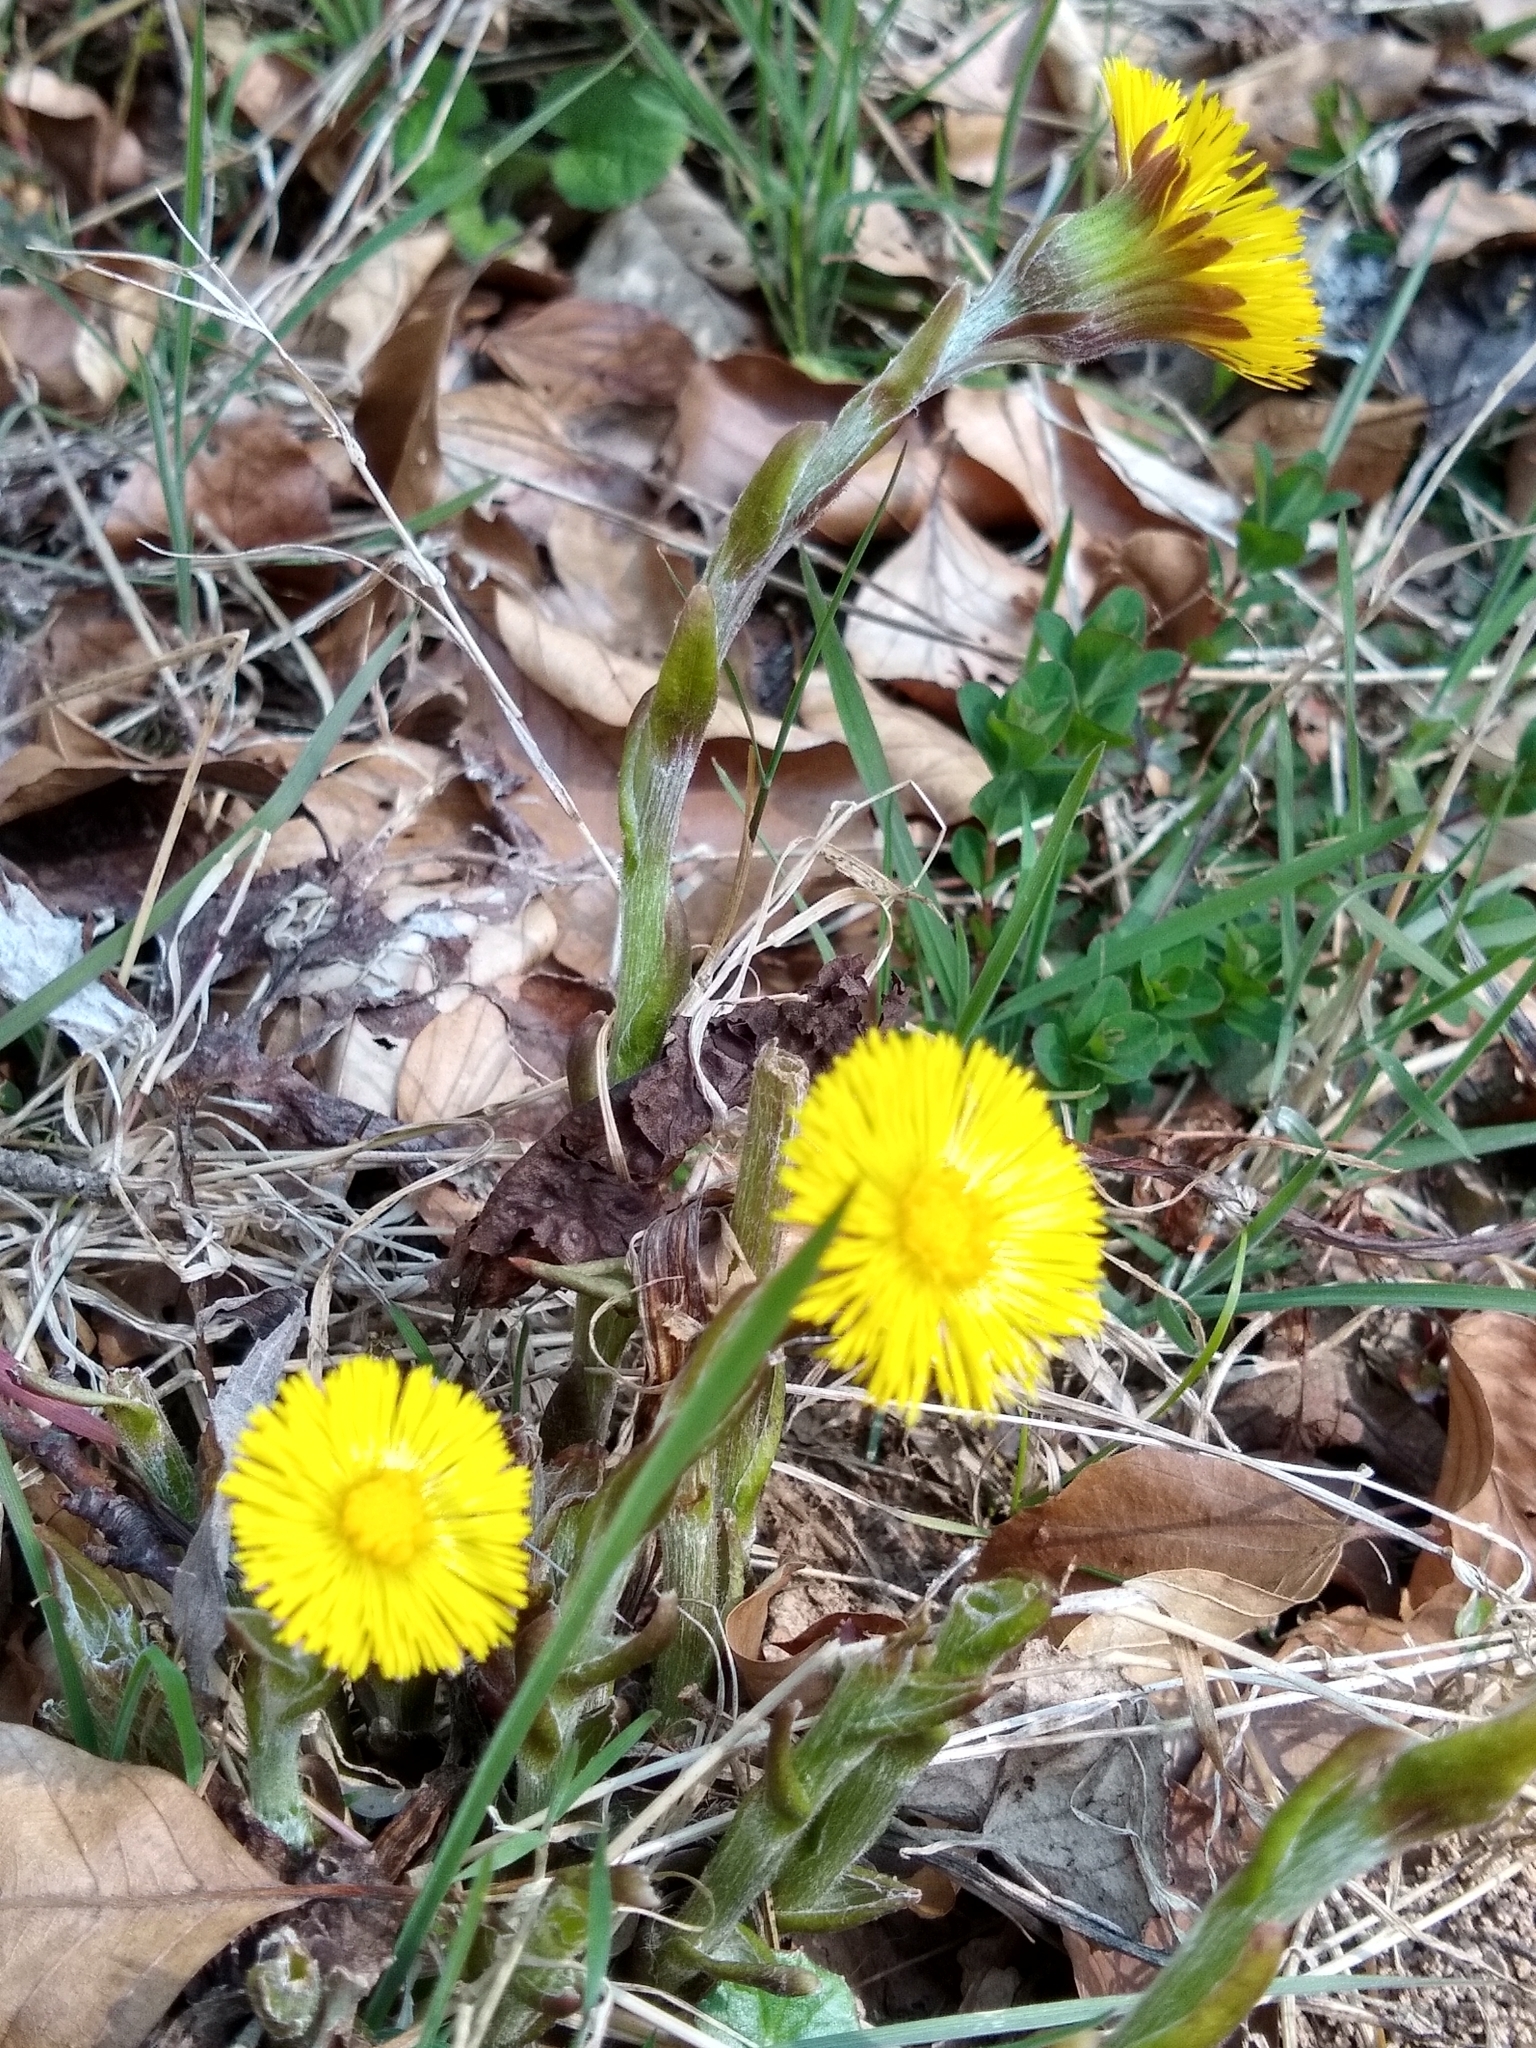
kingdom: Plantae
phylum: Tracheophyta
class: Magnoliopsida
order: Asterales
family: Asteraceae
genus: Tussilago
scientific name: Tussilago farfara
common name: Coltsfoot
